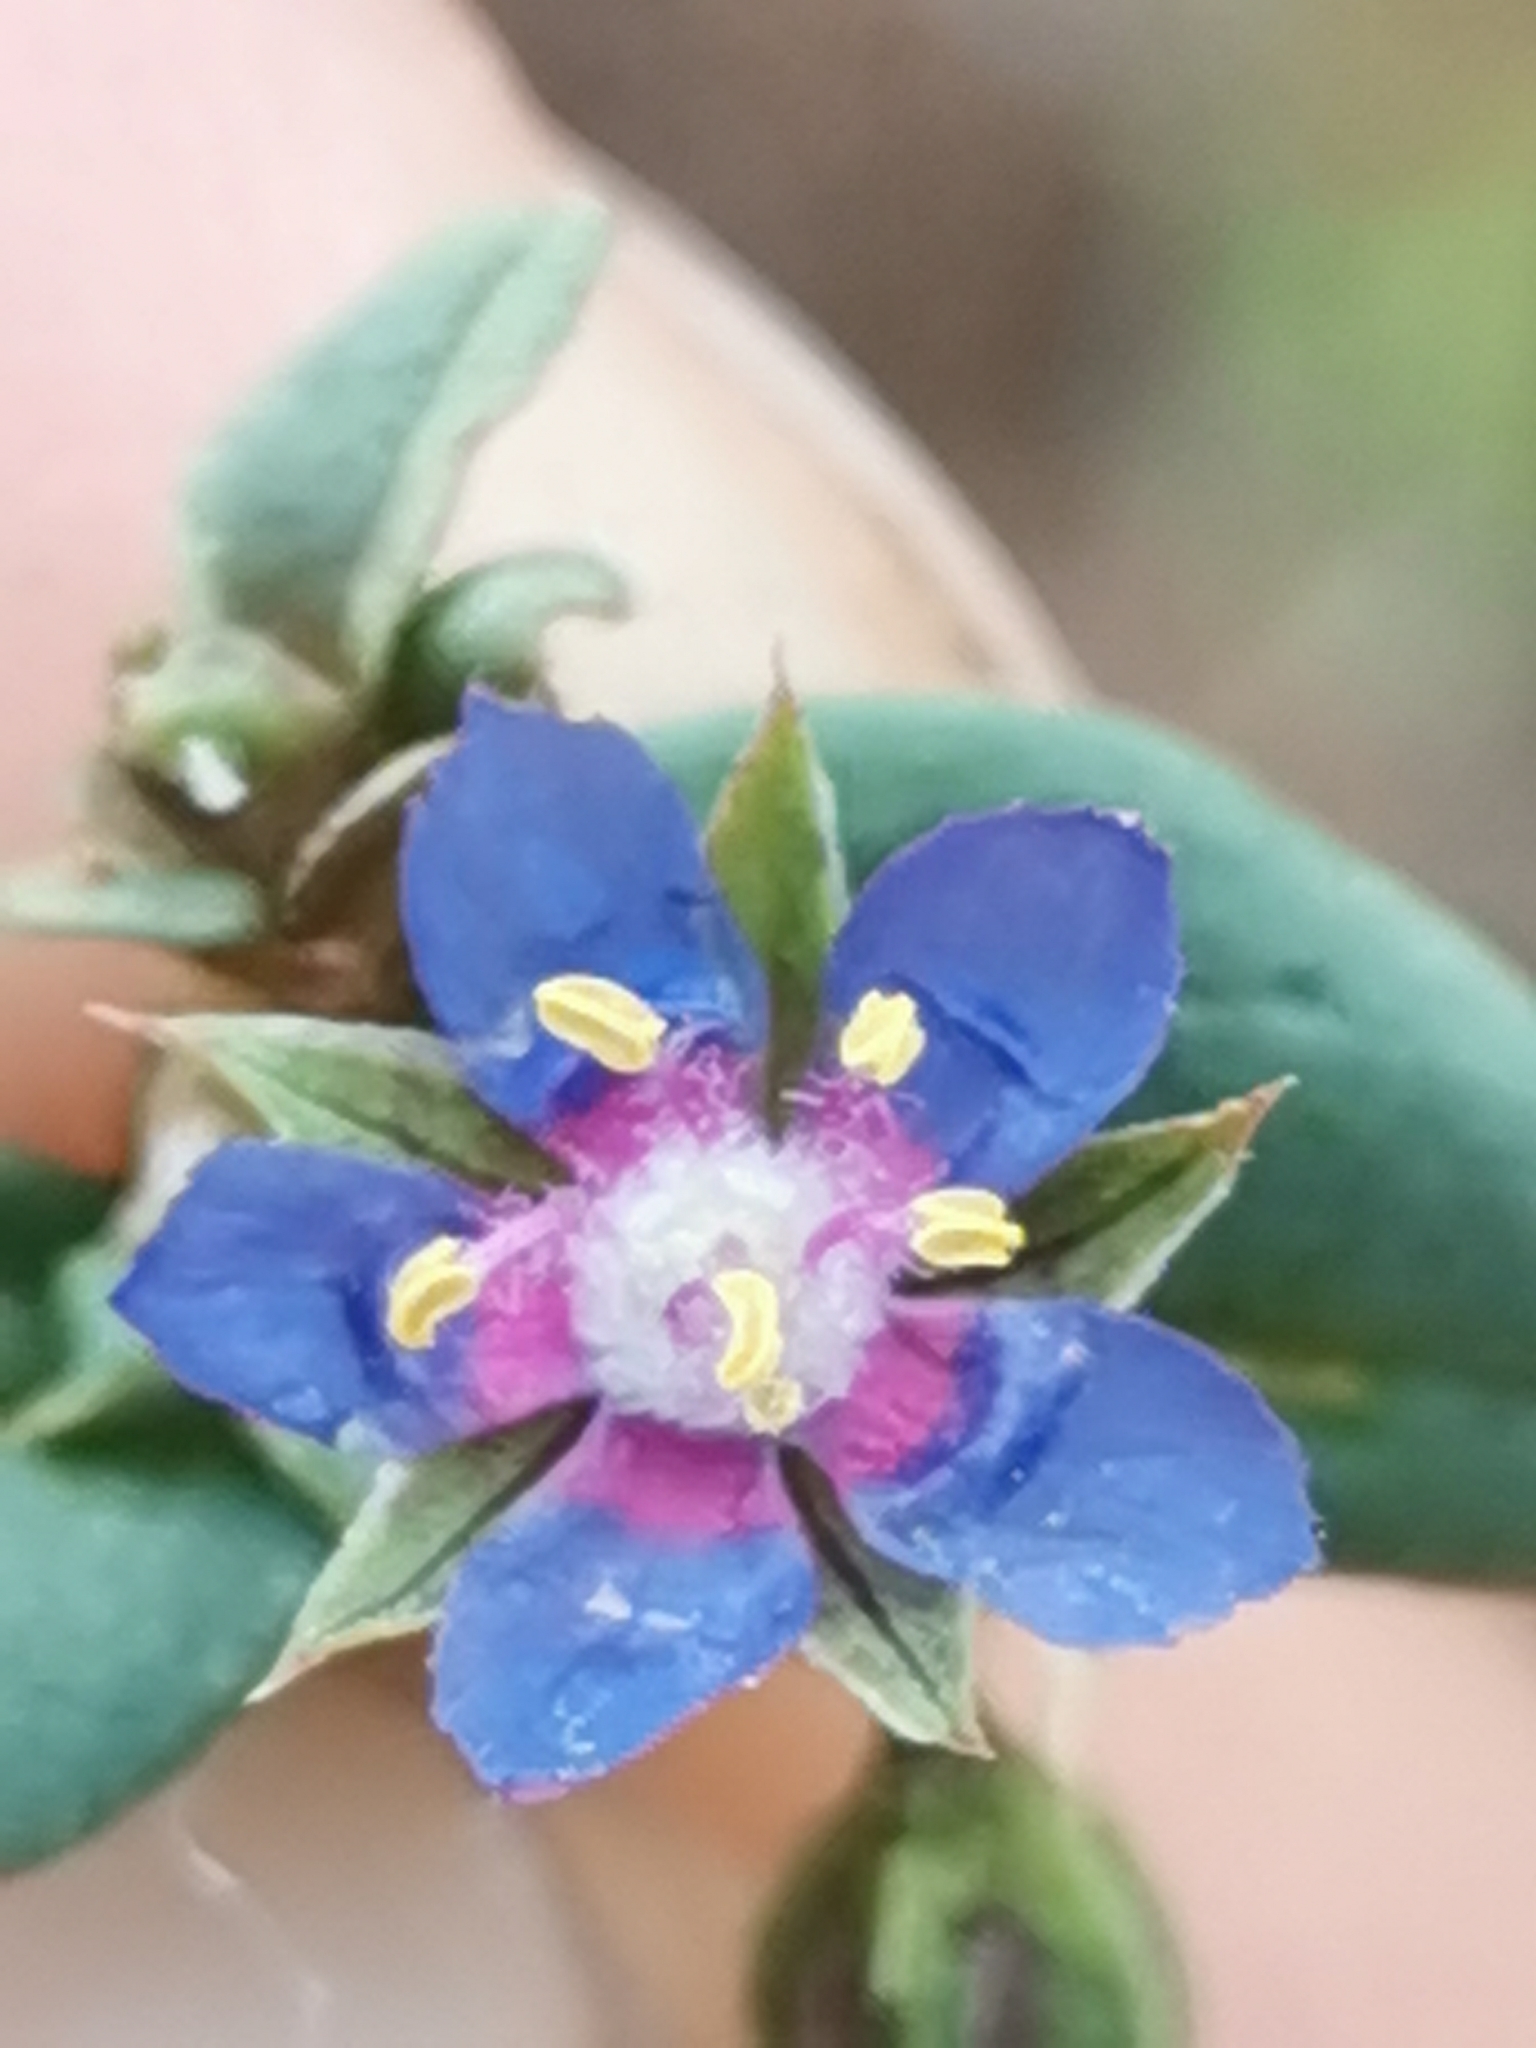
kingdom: Plantae
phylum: Tracheophyta
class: Magnoliopsida
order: Ericales
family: Primulaceae
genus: Lysimachia
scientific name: Lysimachia foemina
